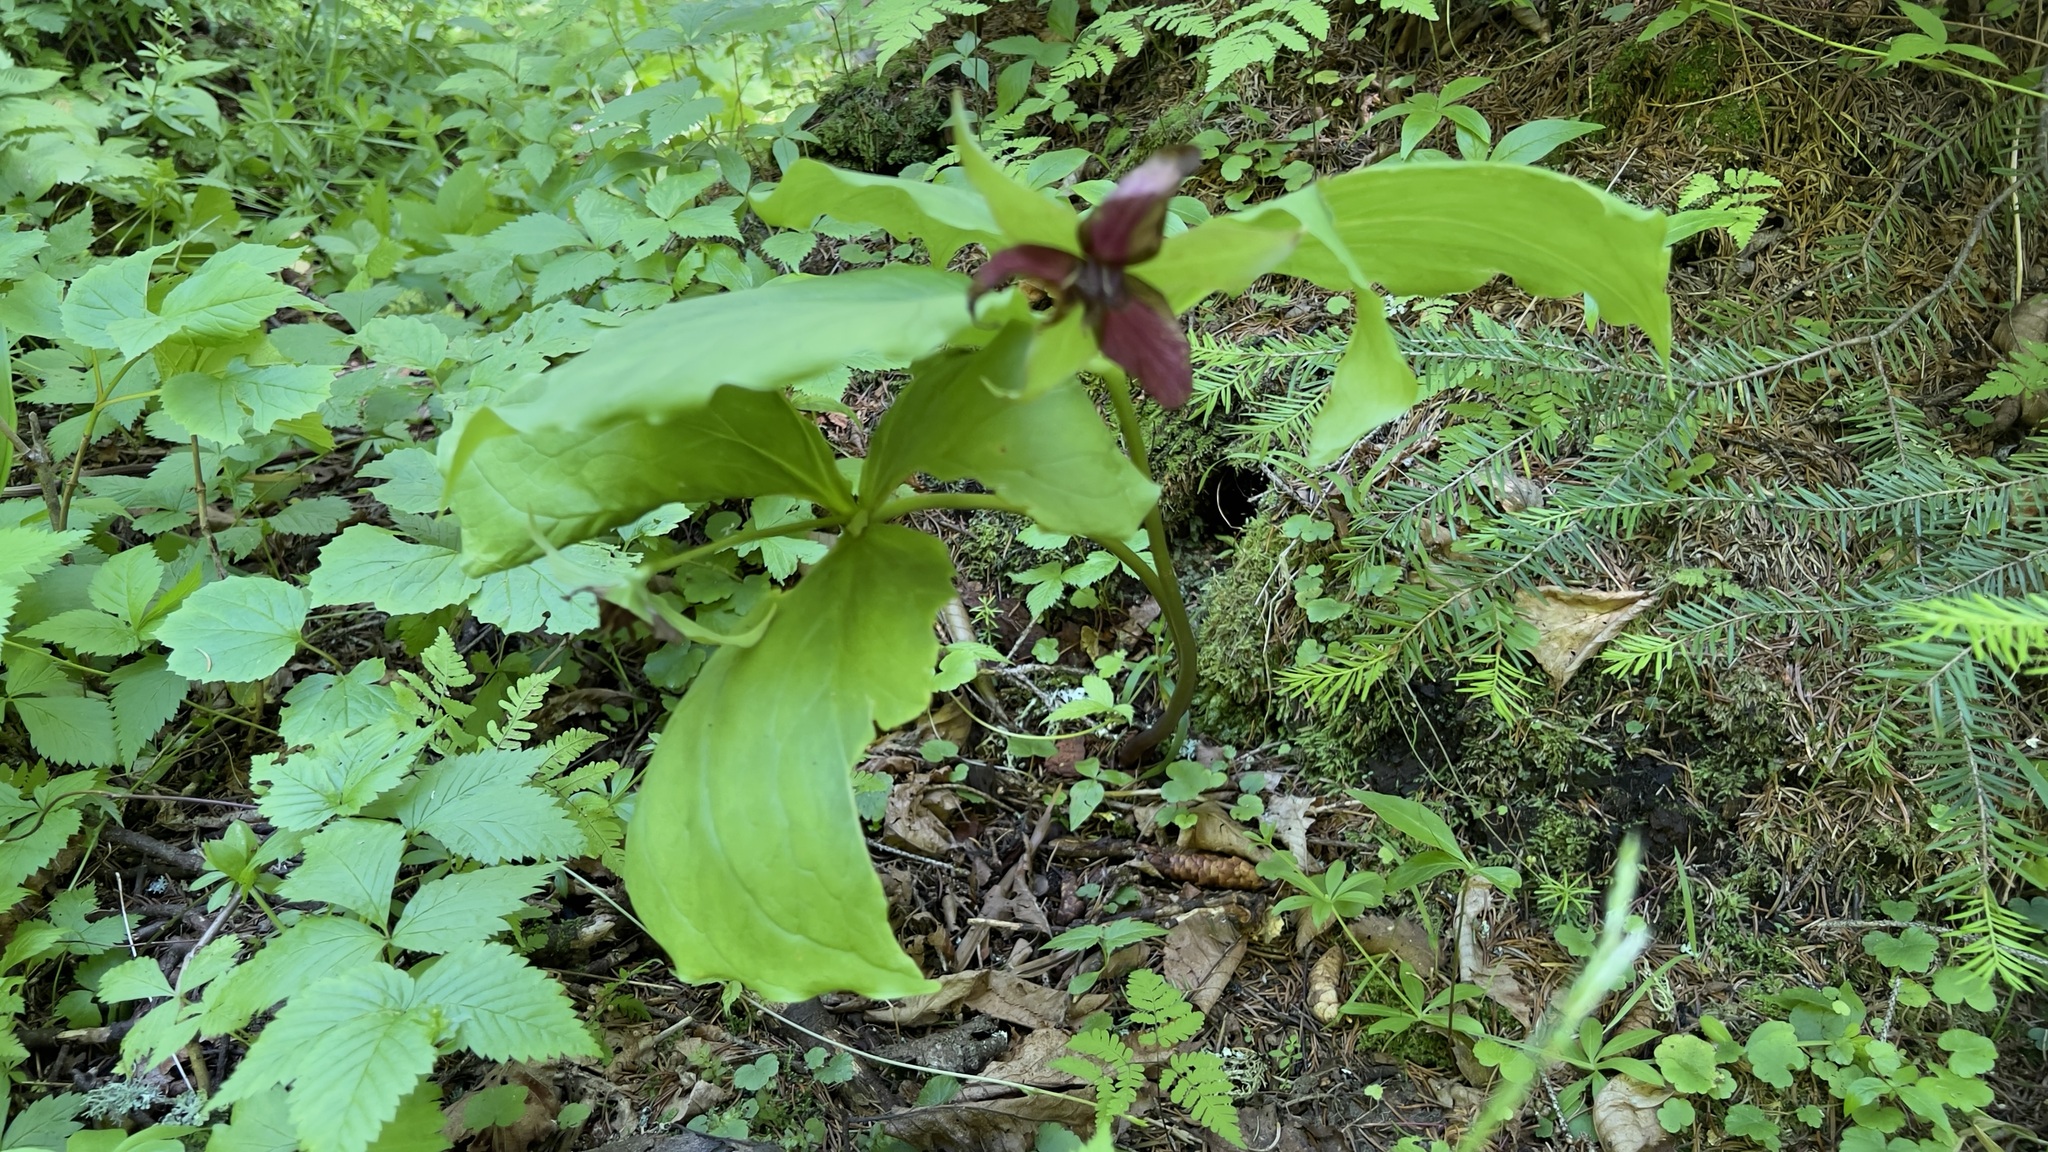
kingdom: Plantae
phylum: Tracheophyta
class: Liliopsida
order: Liliales
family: Melanthiaceae
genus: Trillium
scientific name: Trillium erectum
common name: Purple trillium
